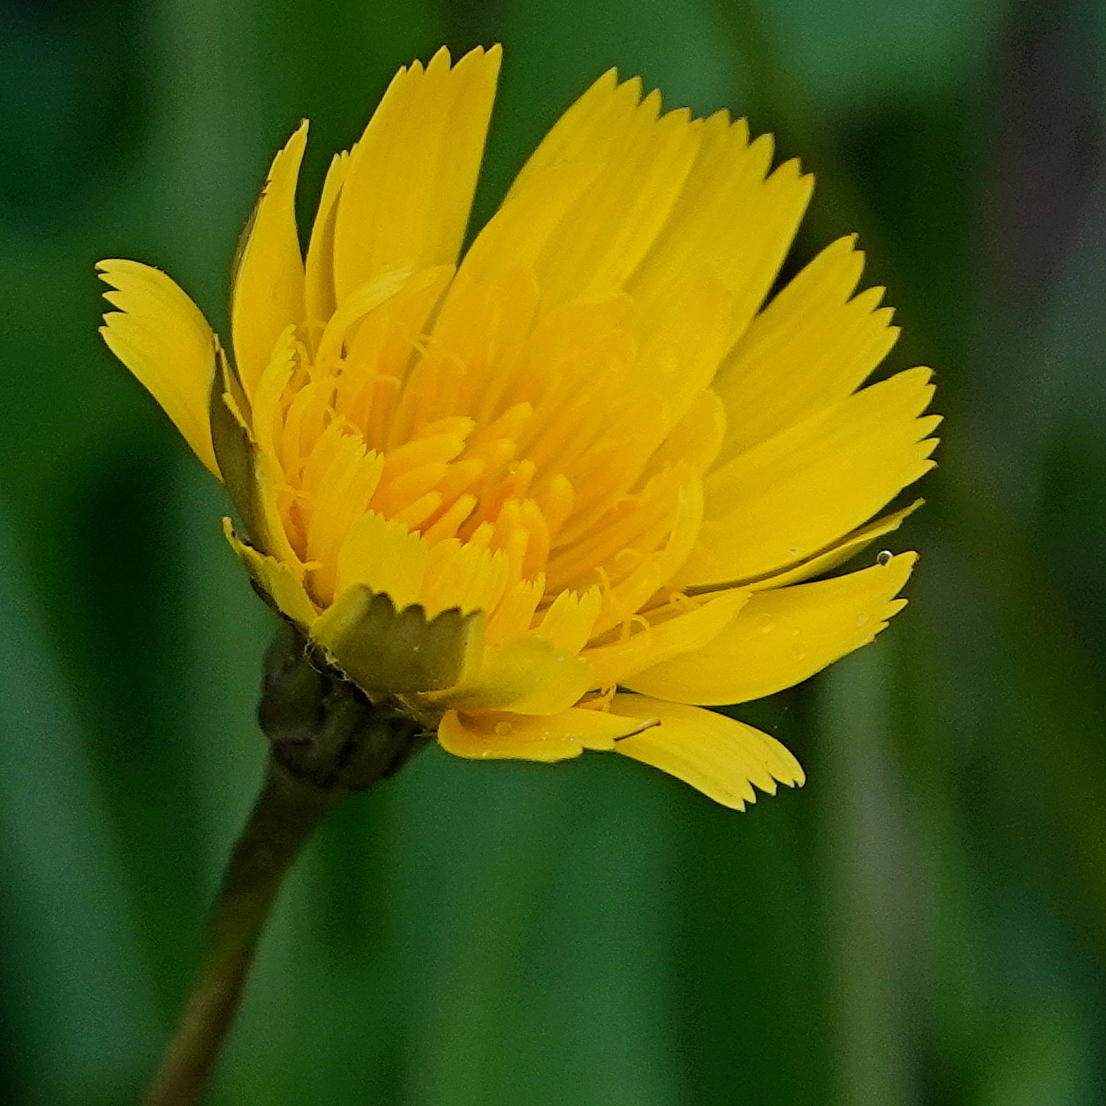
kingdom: Plantae
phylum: Tracheophyta
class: Magnoliopsida
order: Asterales
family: Asteraceae
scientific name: Asteraceae
